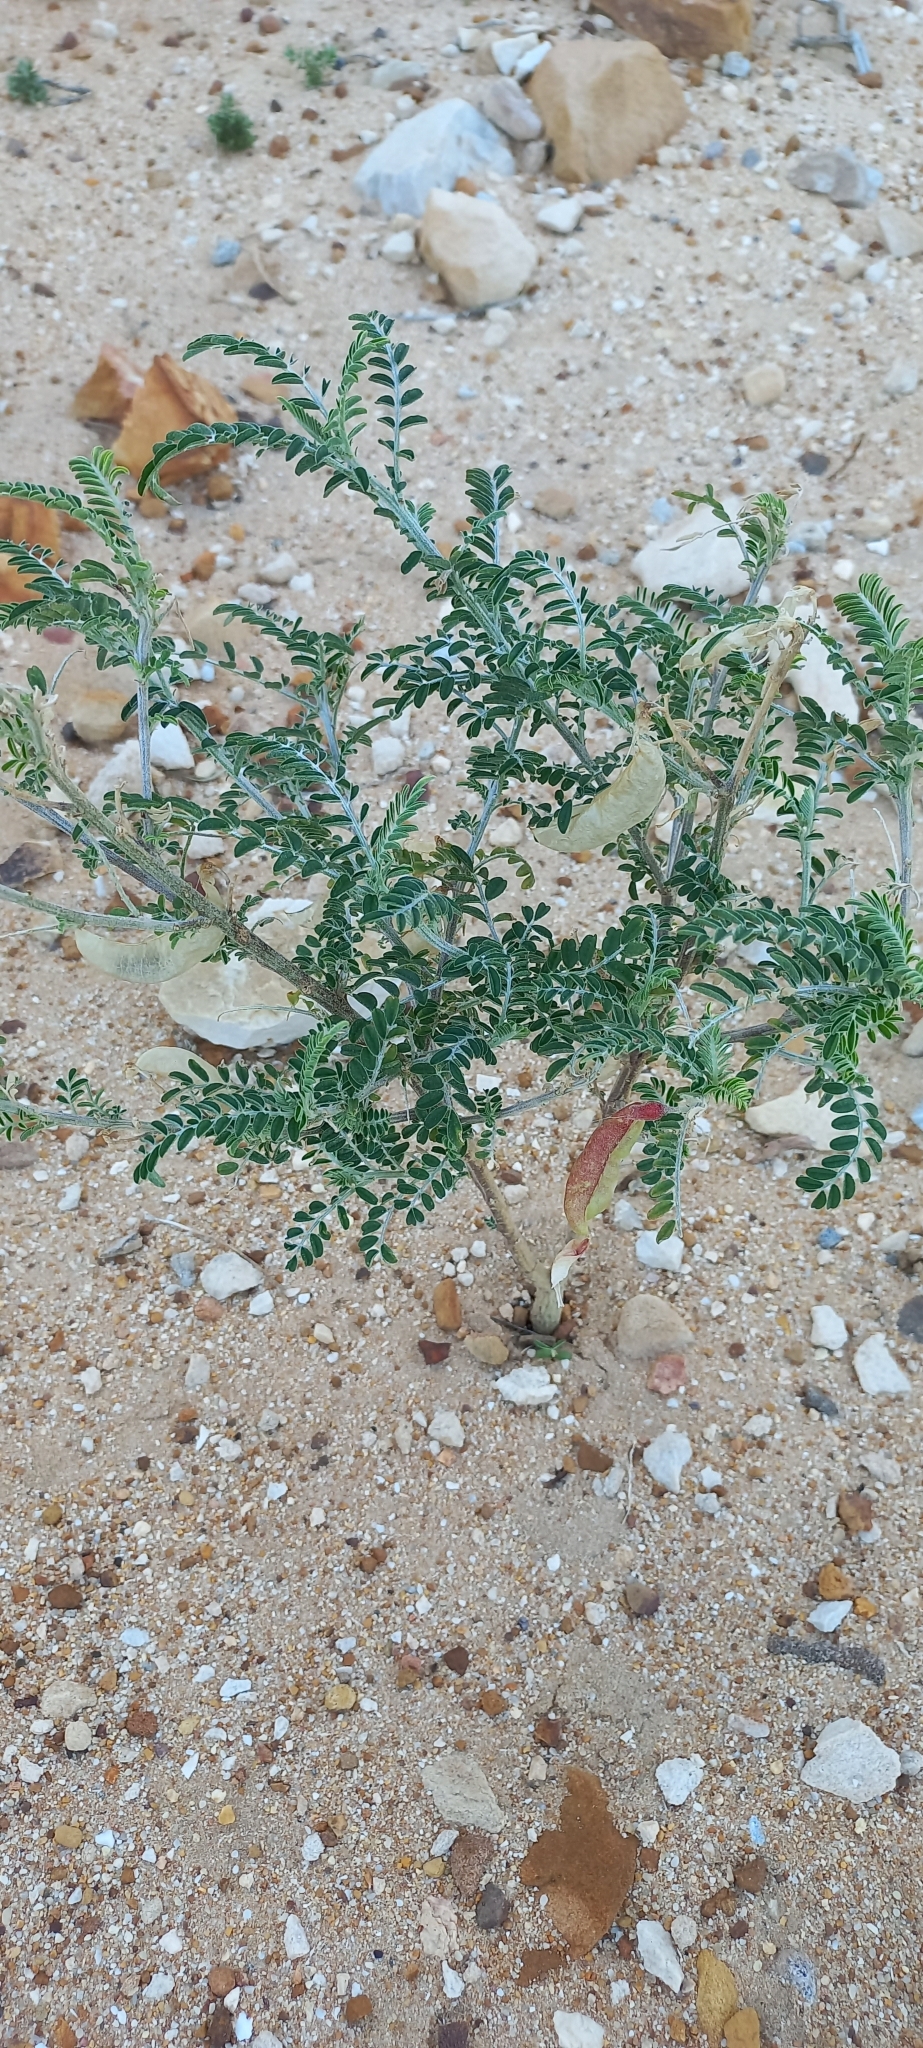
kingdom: Plantae
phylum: Tracheophyta
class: Magnoliopsida
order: Fabales
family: Fabaceae
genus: Lessertia
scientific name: Lessertia frutescens
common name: Balloon-pea
